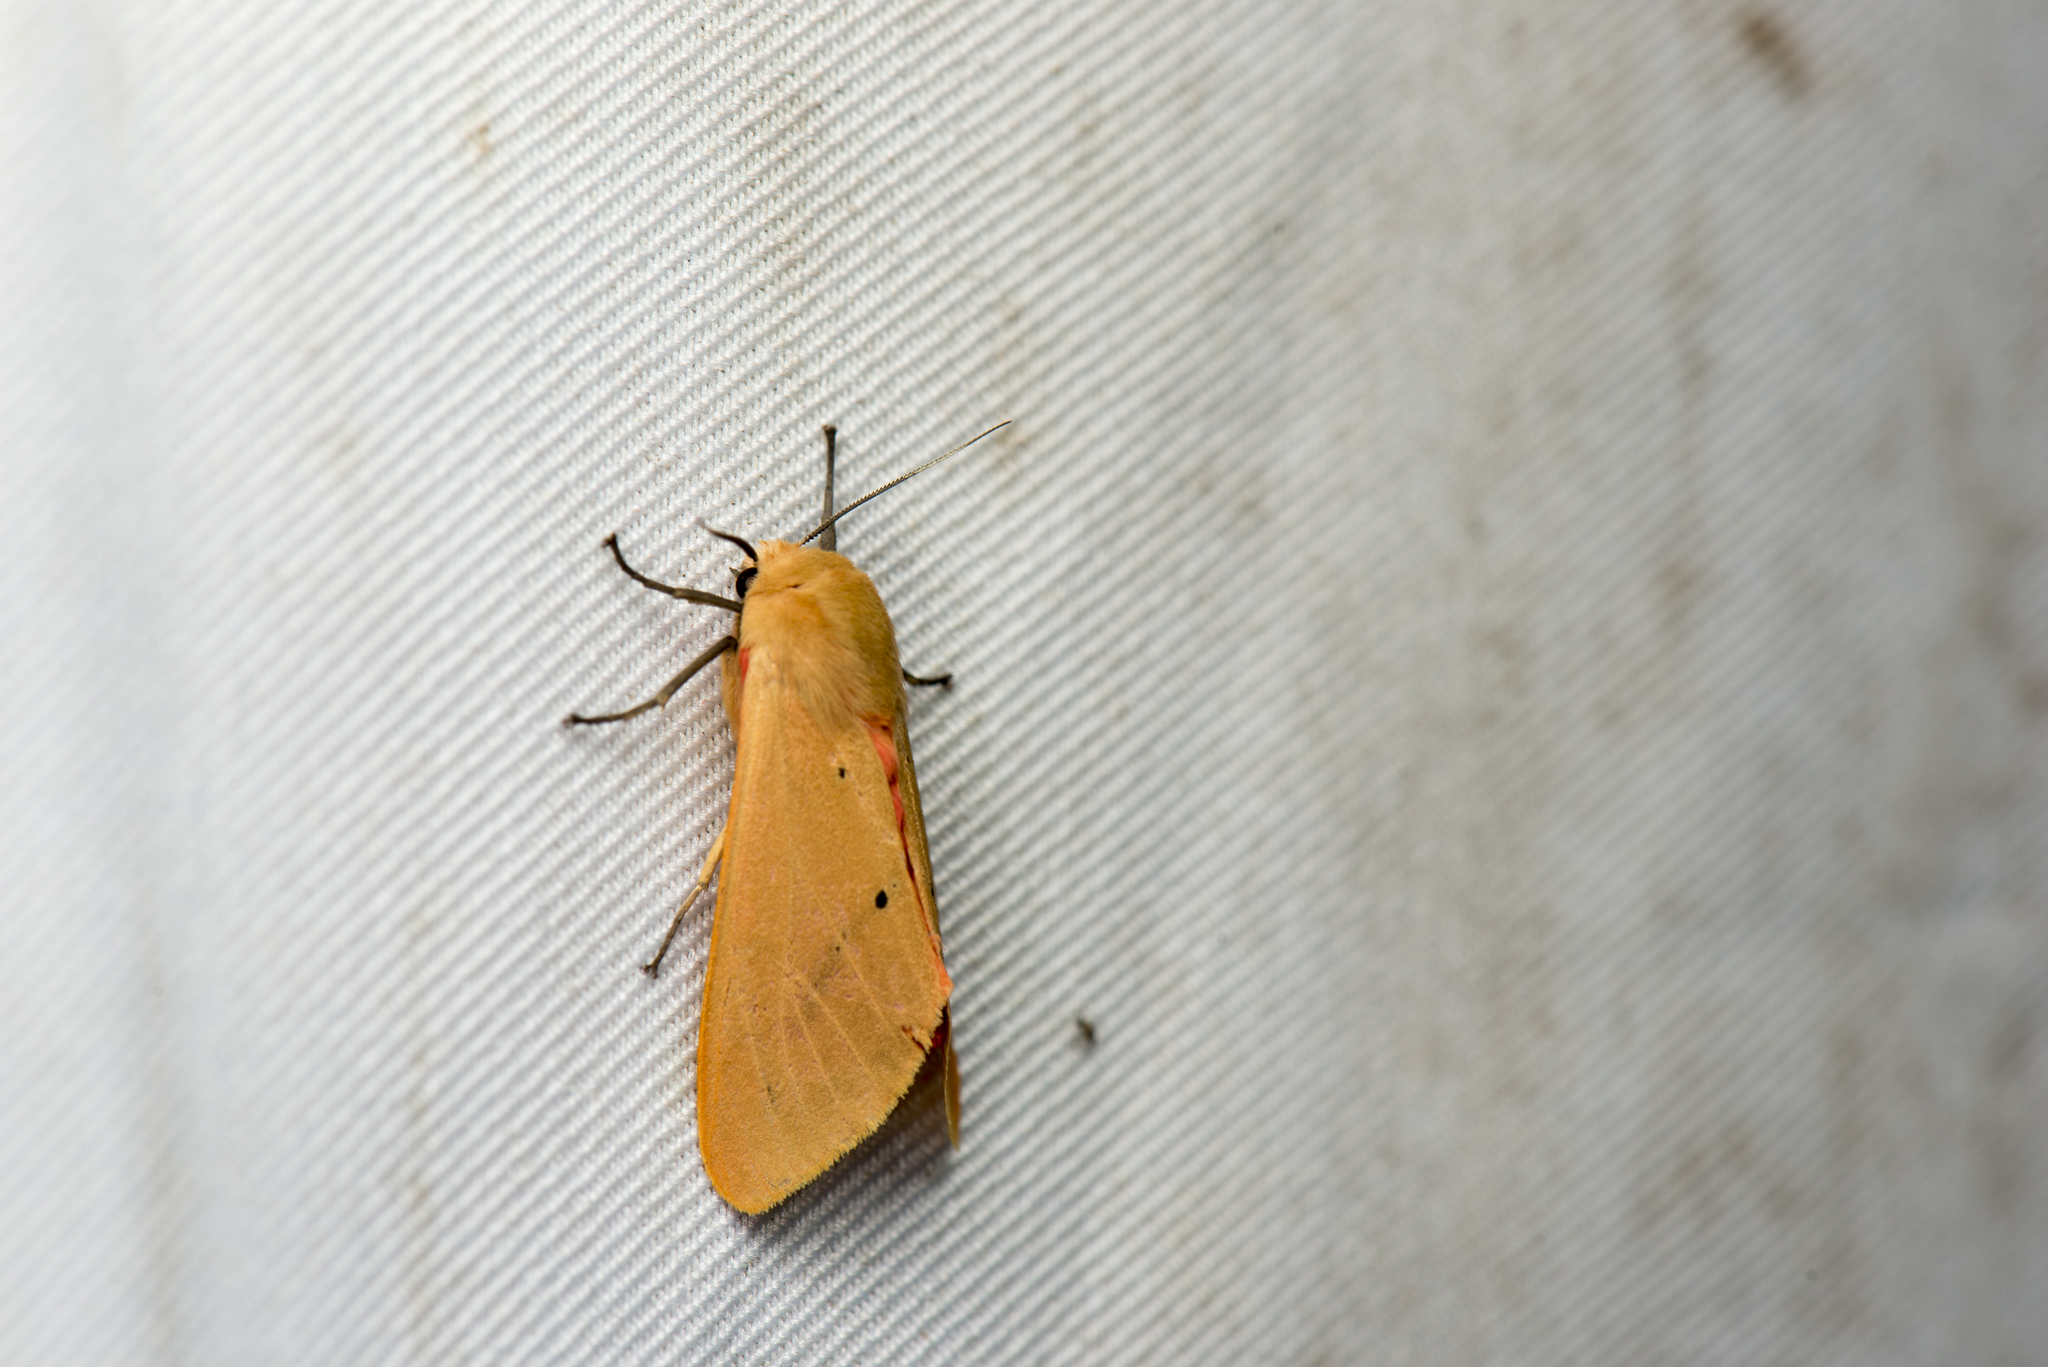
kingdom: Animalia
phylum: Arthropoda
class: Insecta
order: Lepidoptera
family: Erebidae
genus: Spilarctia
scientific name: Spilarctia wilemani
